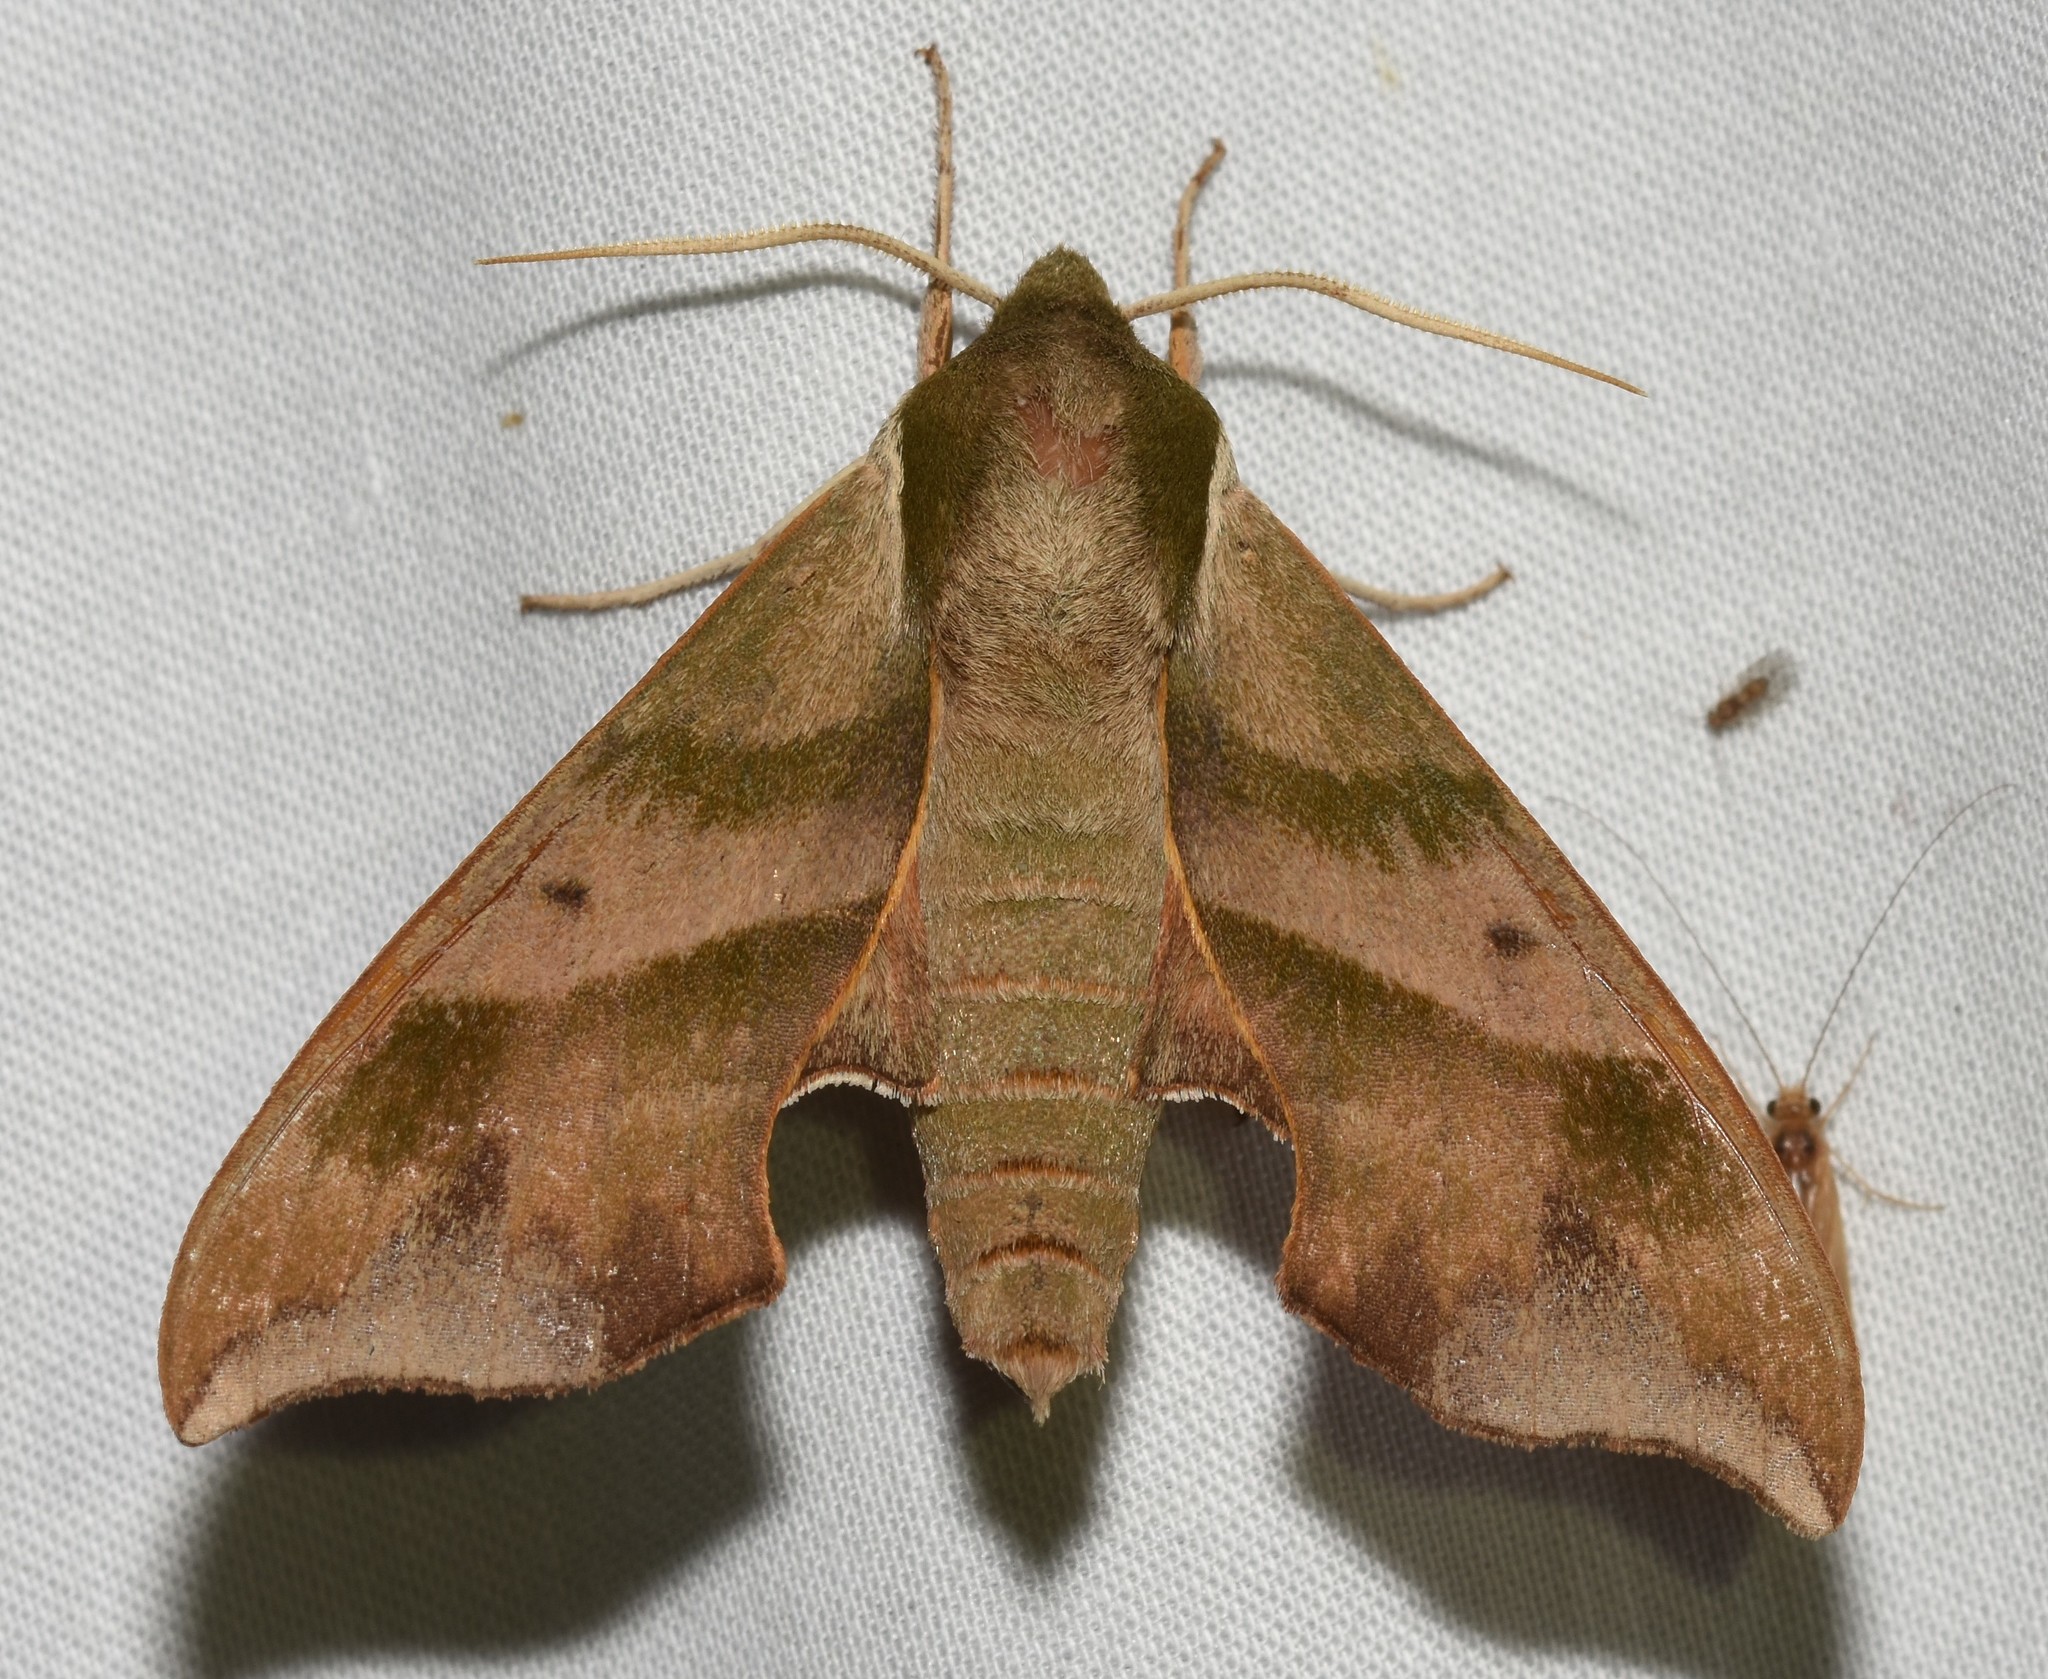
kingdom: Animalia
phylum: Arthropoda
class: Insecta
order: Lepidoptera
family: Sphingidae
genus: Darapsa
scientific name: Darapsa myron
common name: Hog sphinx
